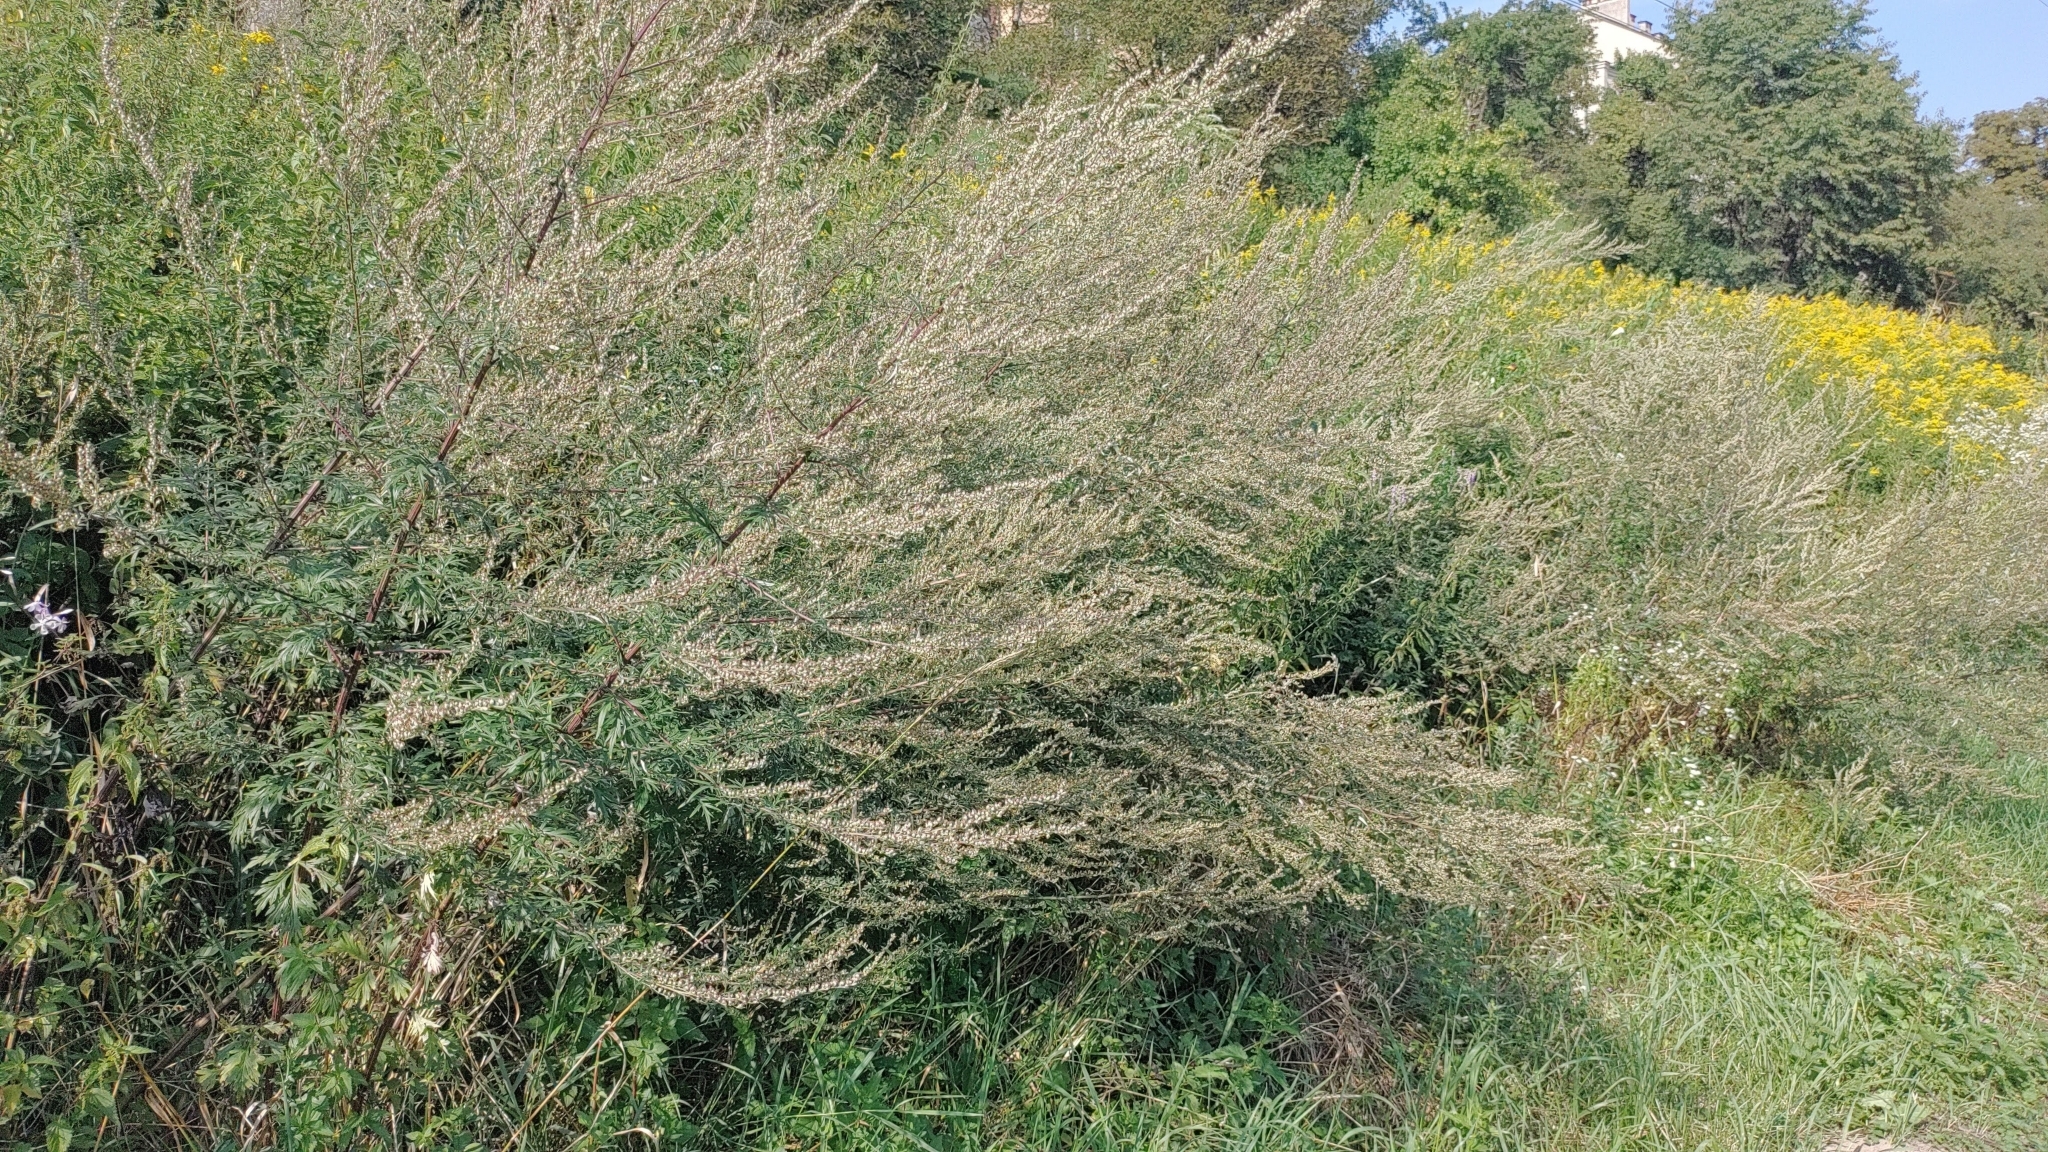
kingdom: Plantae
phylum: Tracheophyta
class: Magnoliopsida
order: Asterales
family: Asteraceae
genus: Artemisia
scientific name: Artemisia vulgaris
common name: Mugwort
